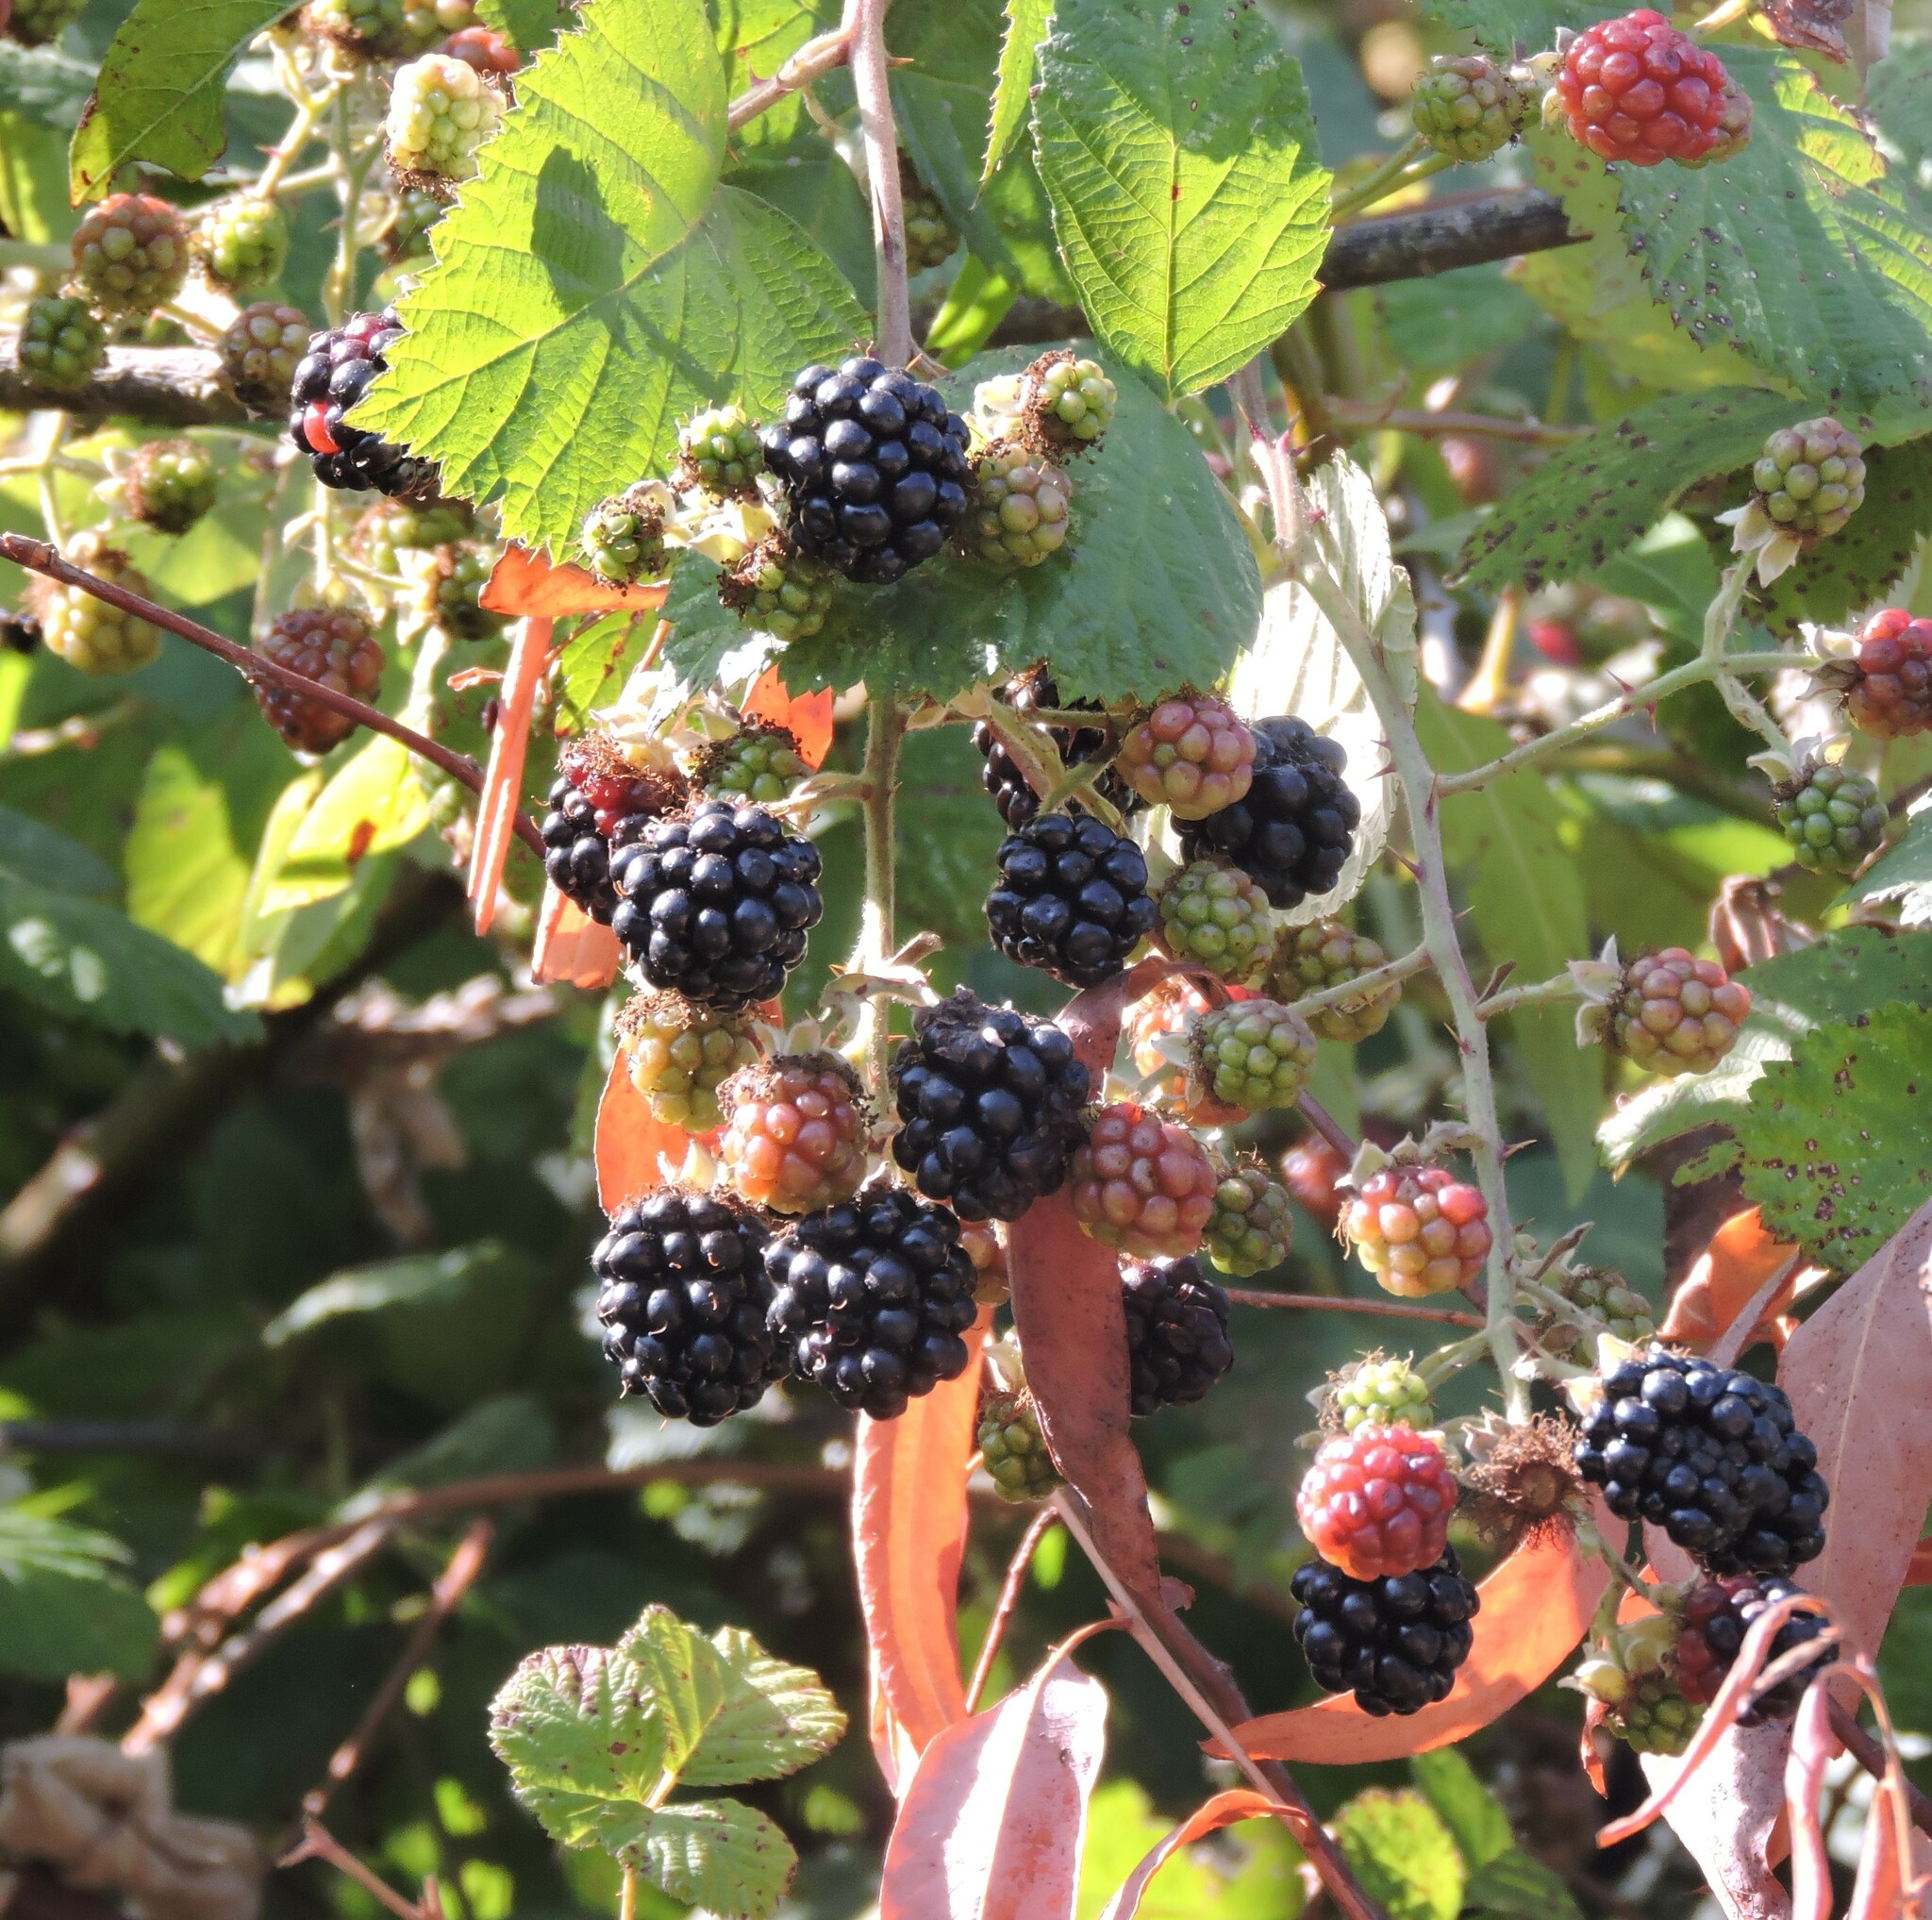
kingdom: Plantae
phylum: Tracheophyta
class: Magnoliopsida
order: Rosales
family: Rosaceae
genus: Rubus
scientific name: Rubus armeniacus
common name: Himalayan blackberry
